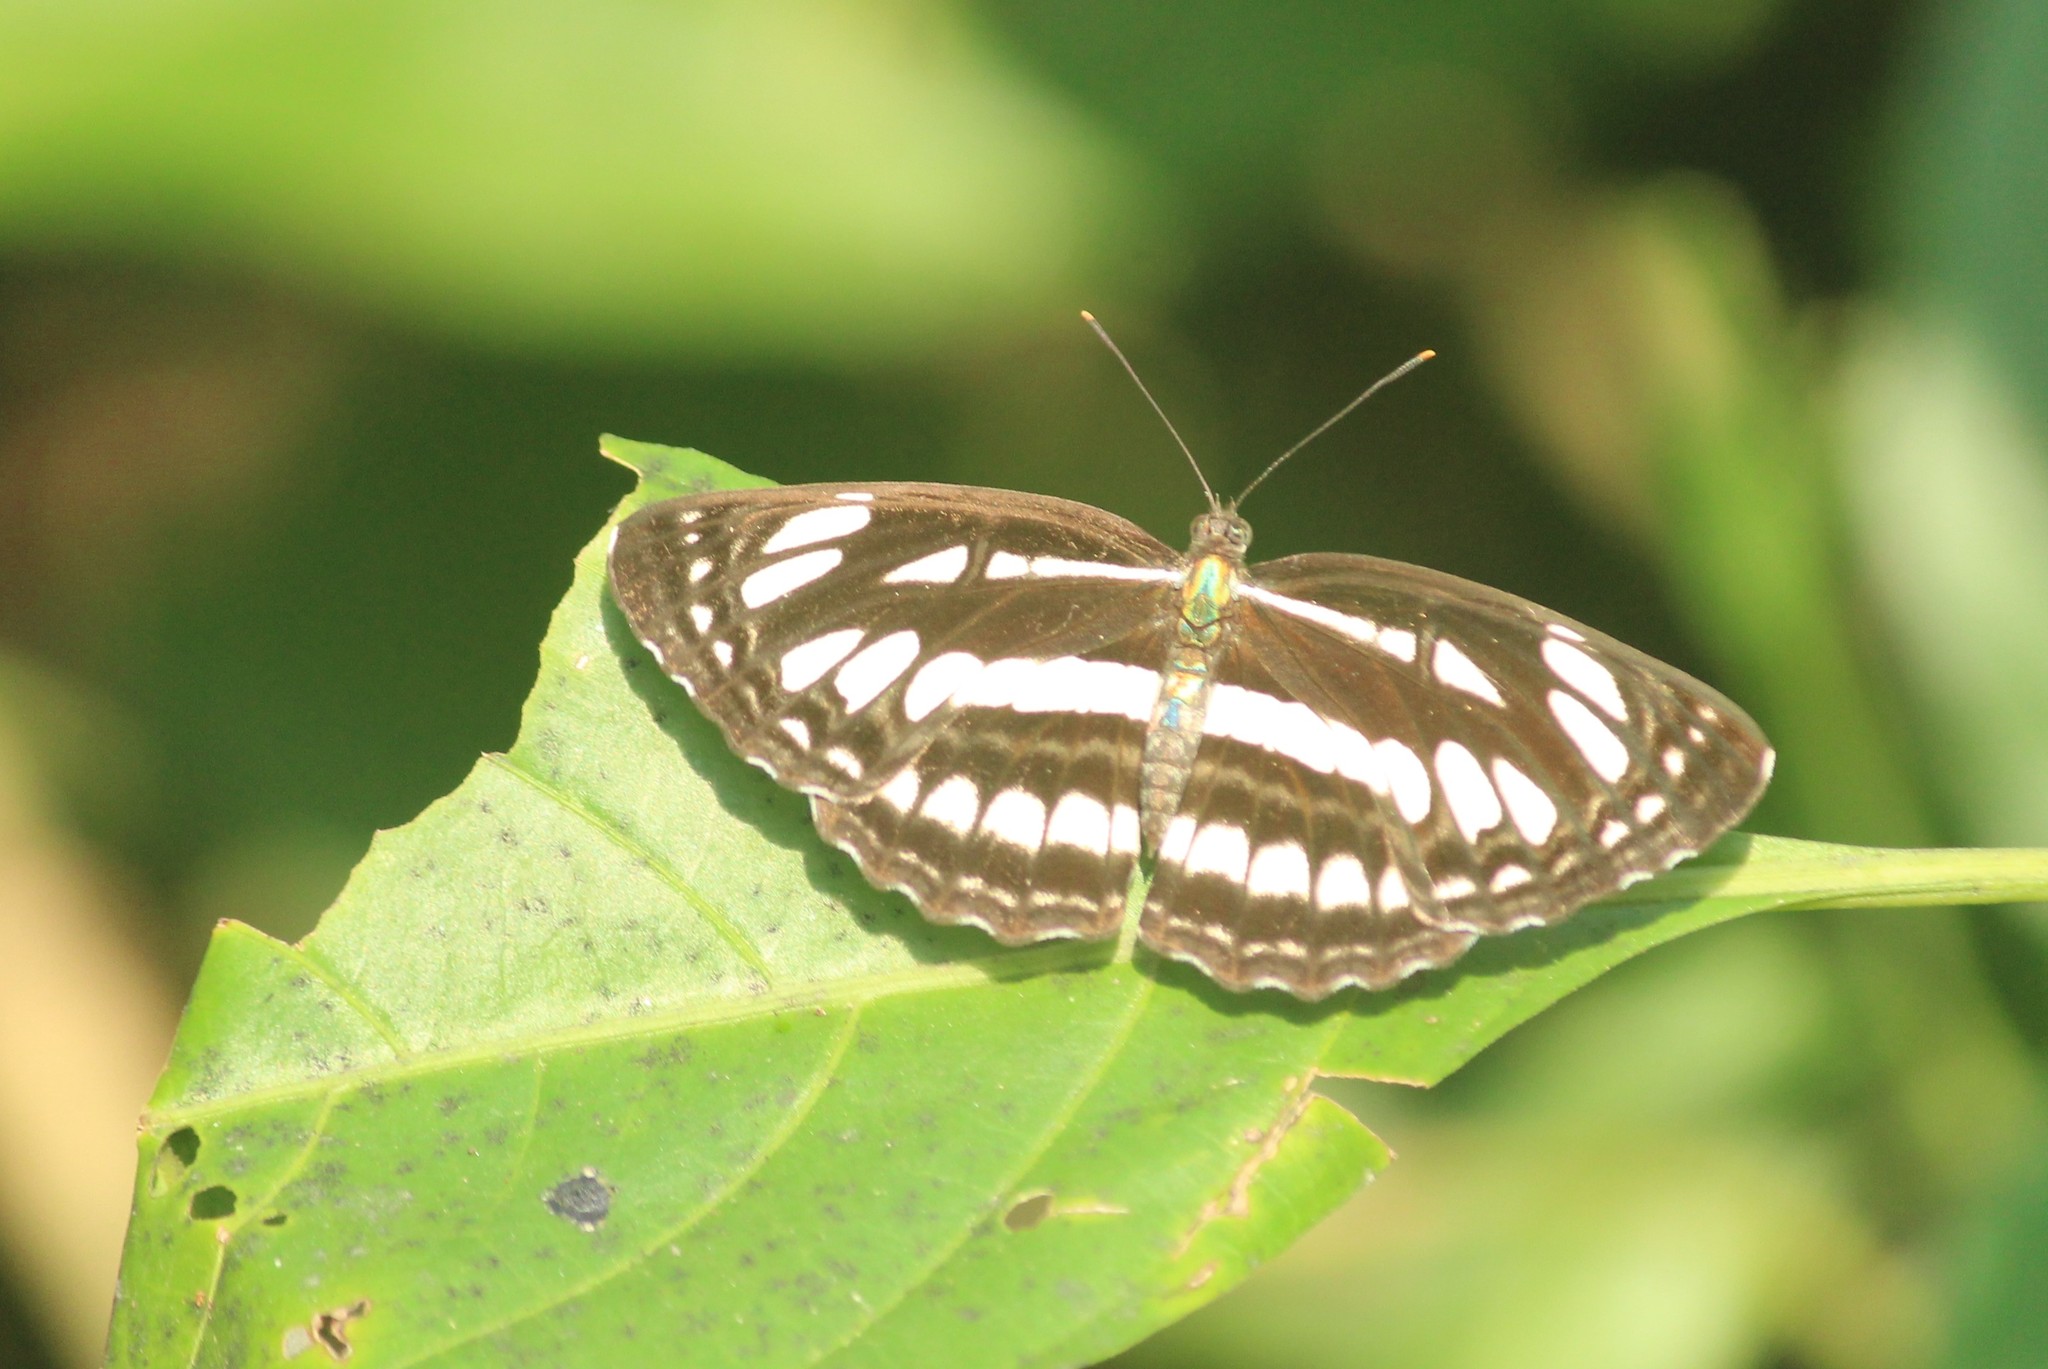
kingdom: Animalia
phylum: Arthropoda
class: Insecta
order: Lepidoptera
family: Nymphalidae
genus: Neptis
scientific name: Neptis hylas
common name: Common sailer
